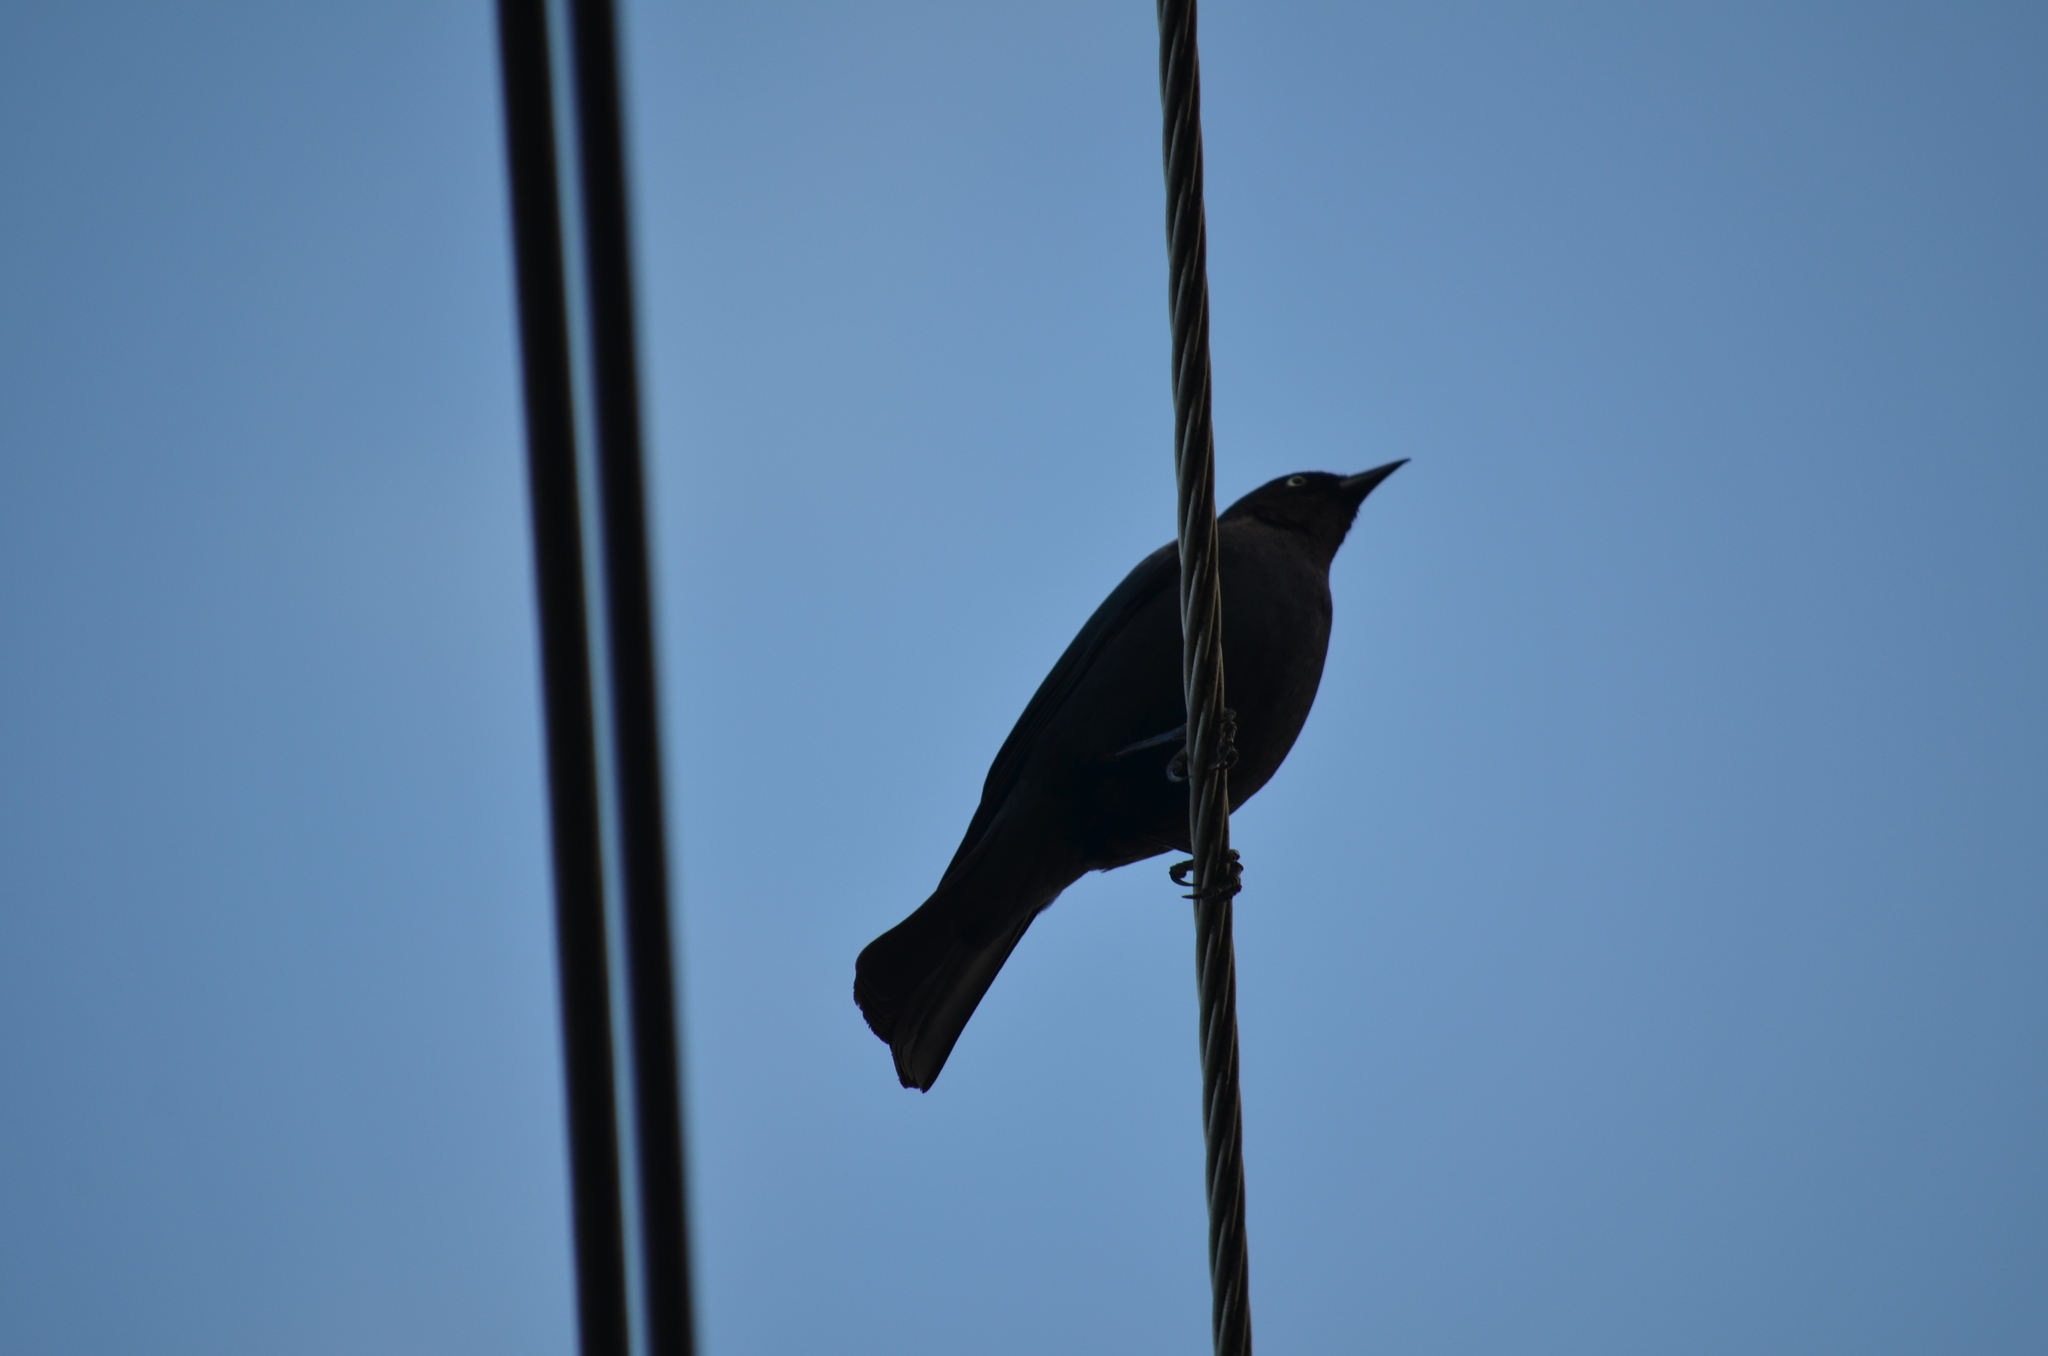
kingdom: Animalia
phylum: Chordata
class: Aves
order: Passeriformes
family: Icteridae
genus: Euphagus
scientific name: Euphagus cyanocephalus
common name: Brewer's blackbird
